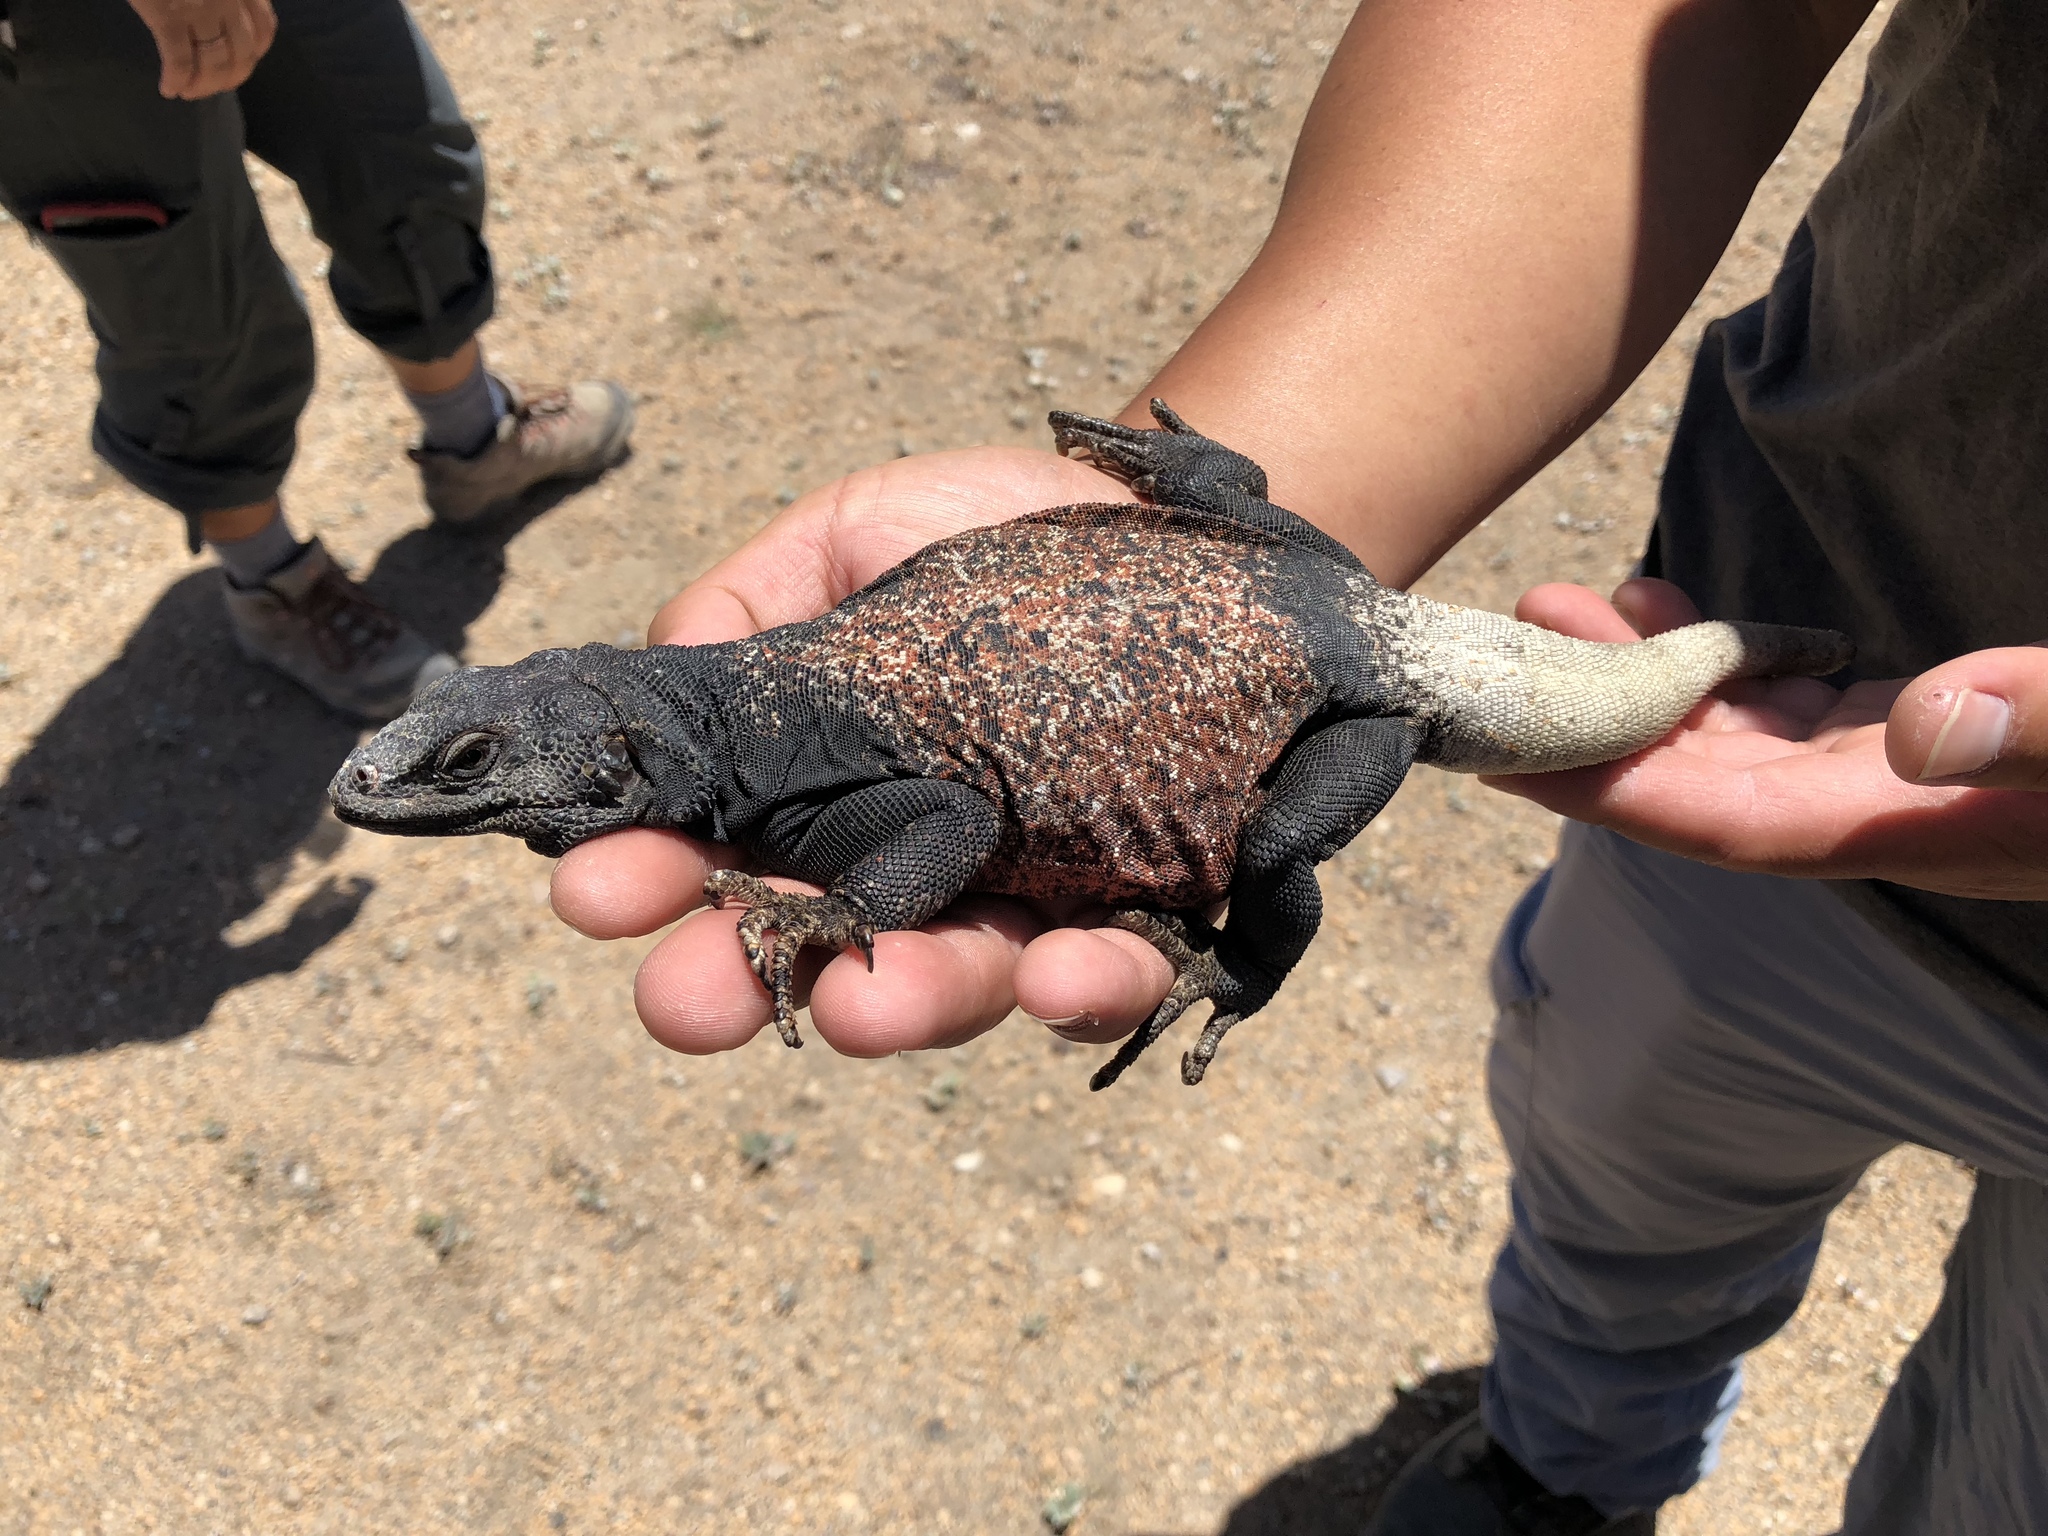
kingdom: Animalia
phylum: Chordata
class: Squamata
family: Iguanidae
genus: Sauromalus
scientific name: Sauromalus ater
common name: Northern chuckwalla
